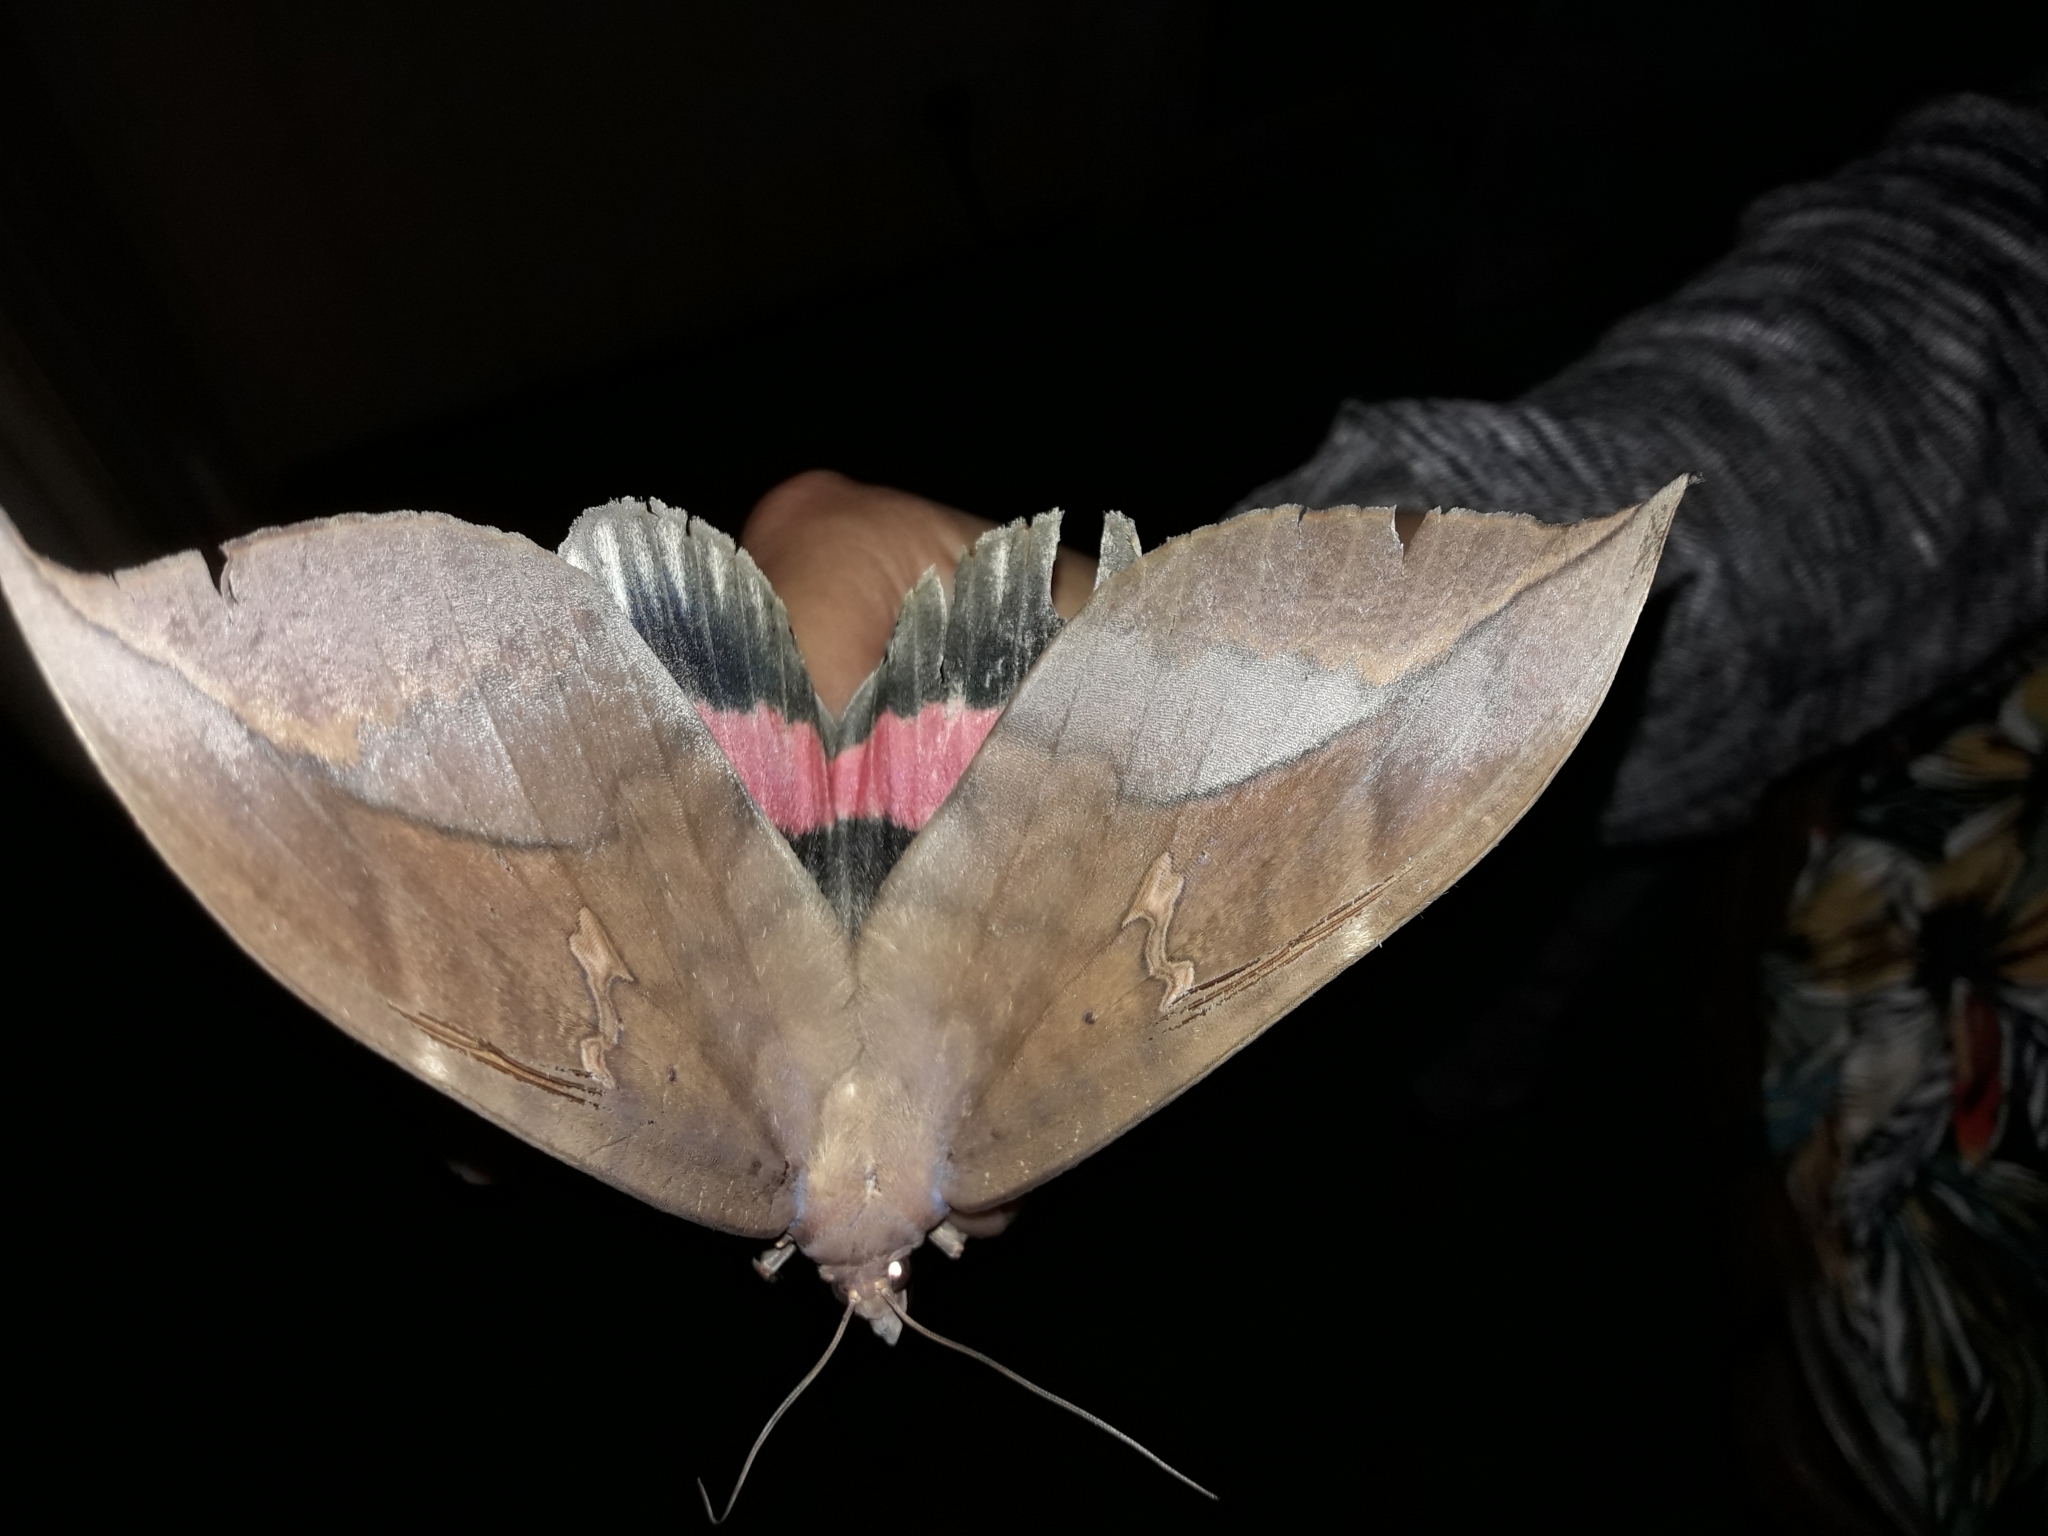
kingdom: Animalia
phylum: Arthropoda
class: Insecta
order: Lepidoptera
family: Erebidae
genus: Phyllodes
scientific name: Phyllodes imperialis
